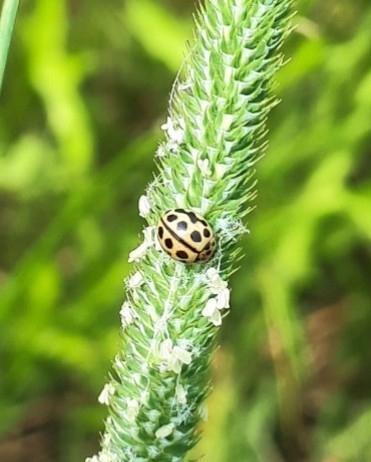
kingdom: Animalia
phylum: Arthropoda
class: Insecta
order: Coleoptera
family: Coccinellidae
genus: Tytthaspis
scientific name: Tytthaspis sedecimpunctata
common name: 16-spot ladybird
